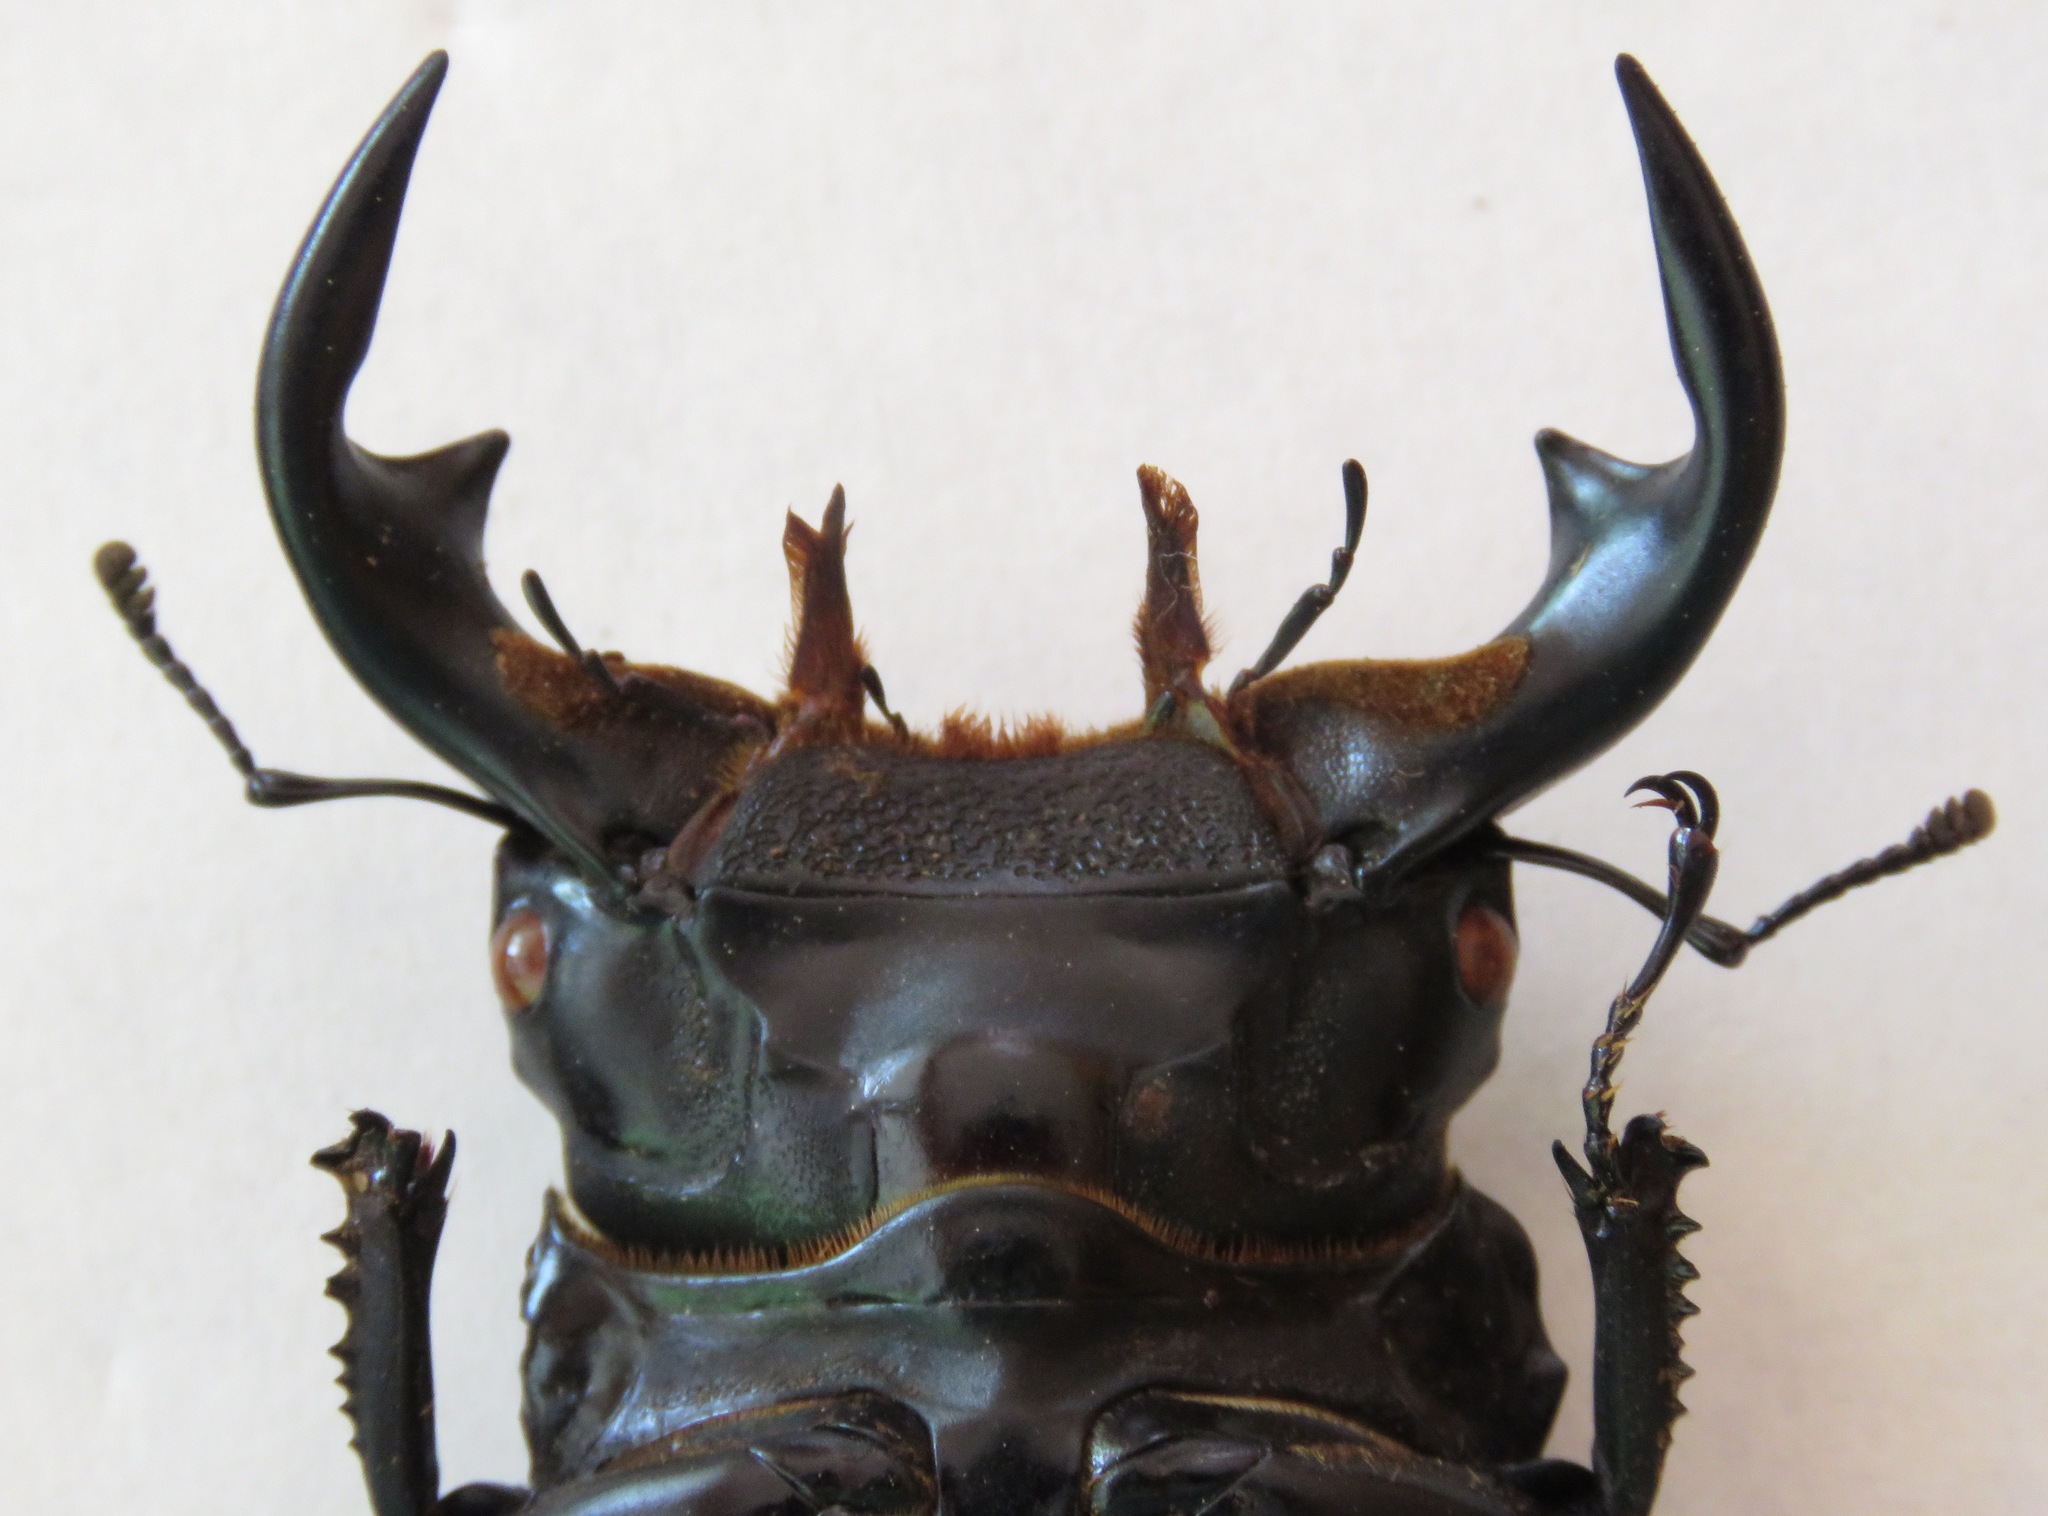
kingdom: Animalia
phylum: Arthropoda
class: Insecta
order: Coleoptera
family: Lucanidae
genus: Dorcus
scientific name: Dorcus antaeus
